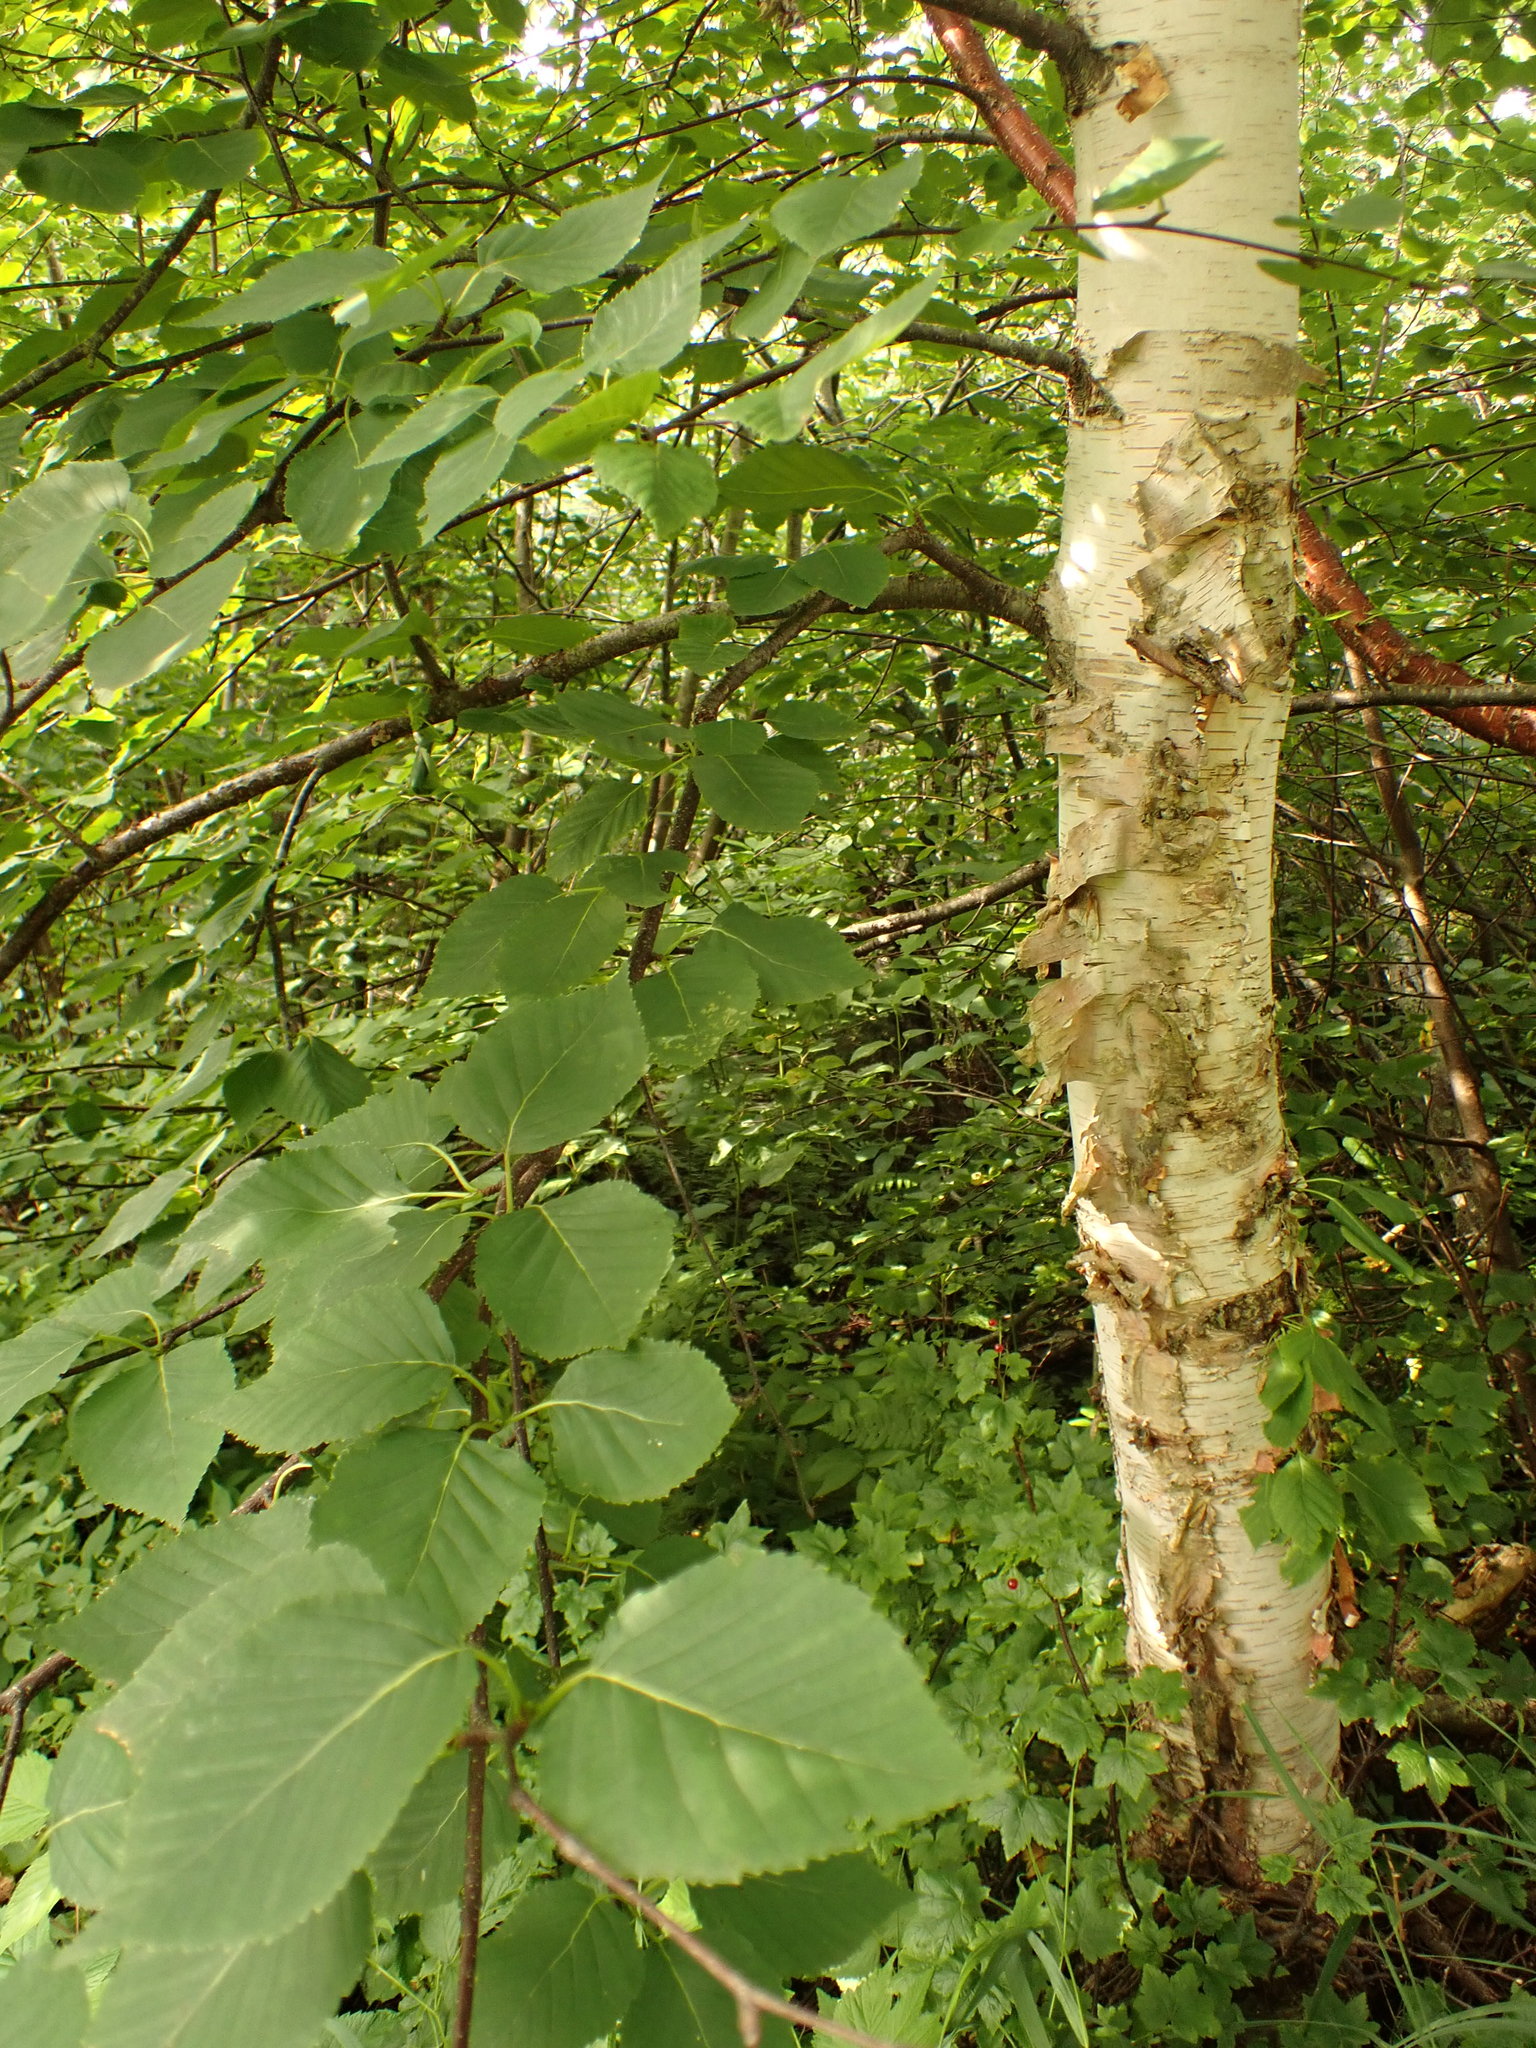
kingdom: Plantae
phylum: Tracheophyta
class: Magnoliopsida
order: Fagales
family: Betulaceae
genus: Betula
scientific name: Betula papyrifera
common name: Paper birch
